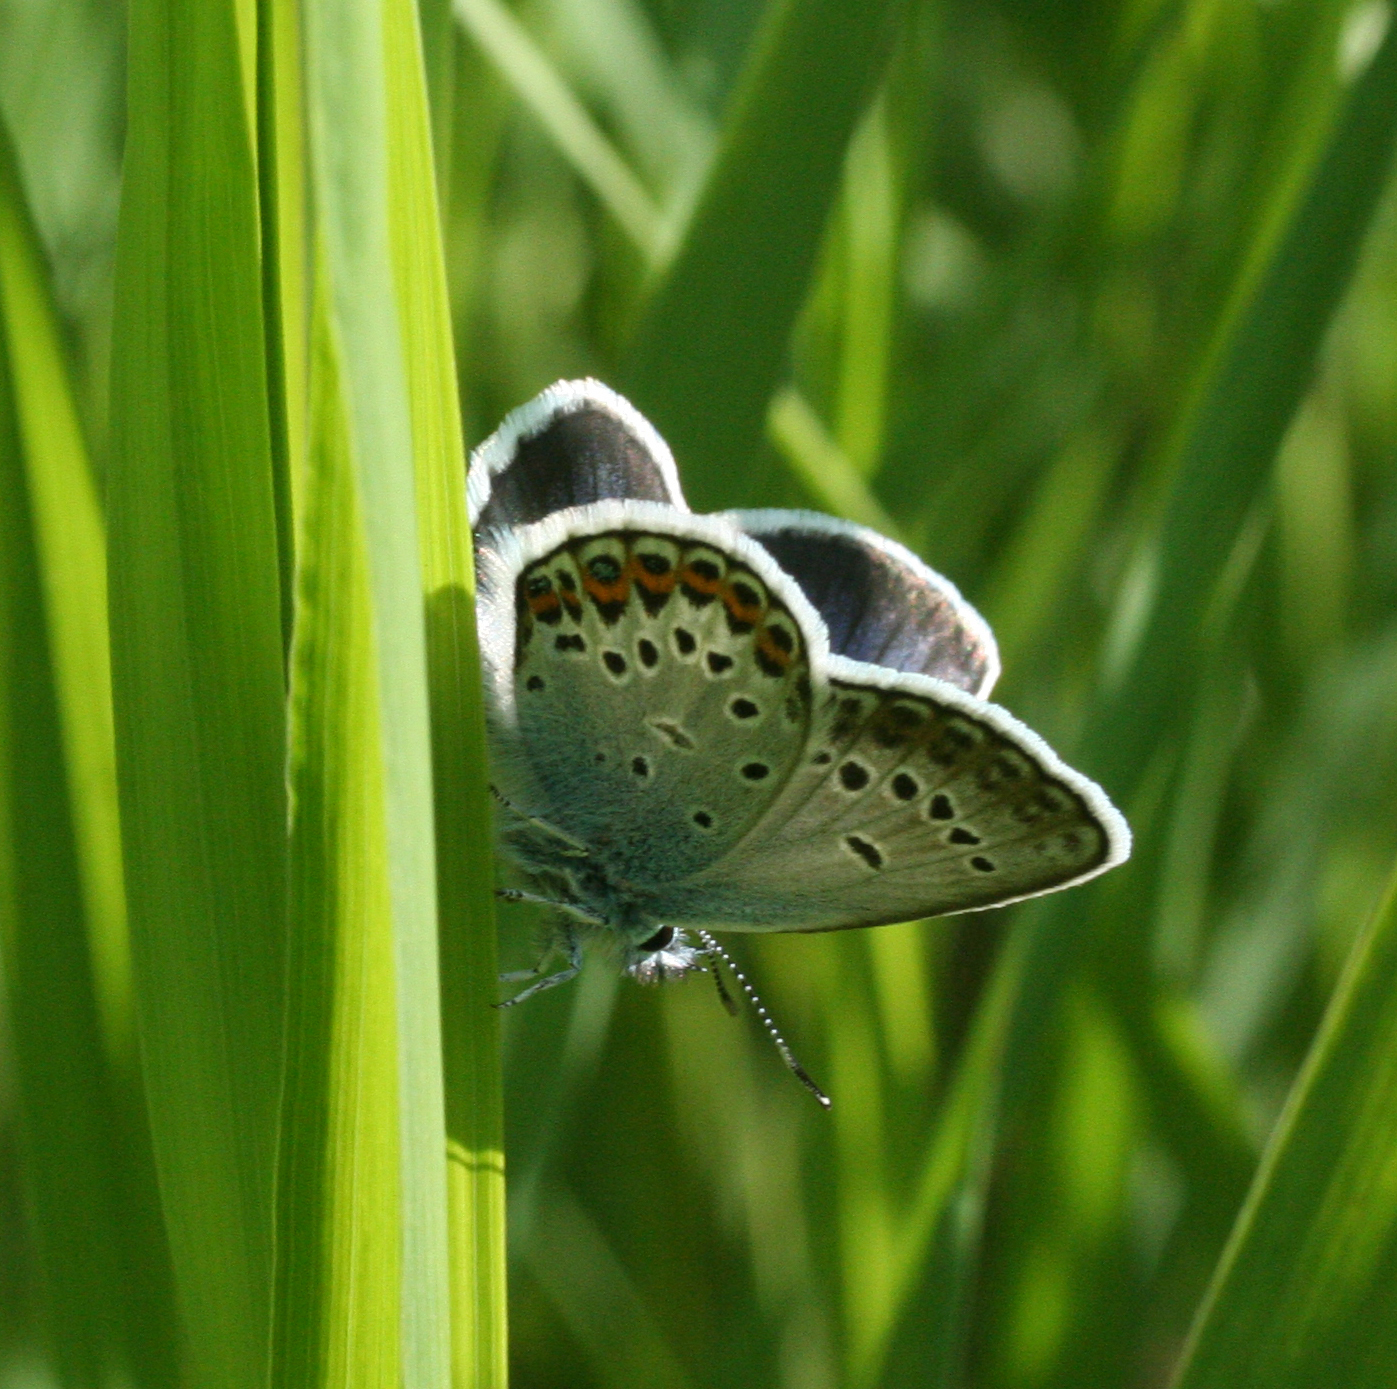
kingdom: Animalia
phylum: Arthropoda
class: Insecta
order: Lepidoptera
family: Lycaenidae
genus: Plebejus
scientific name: Plebejus argus
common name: Silver-studded blue
